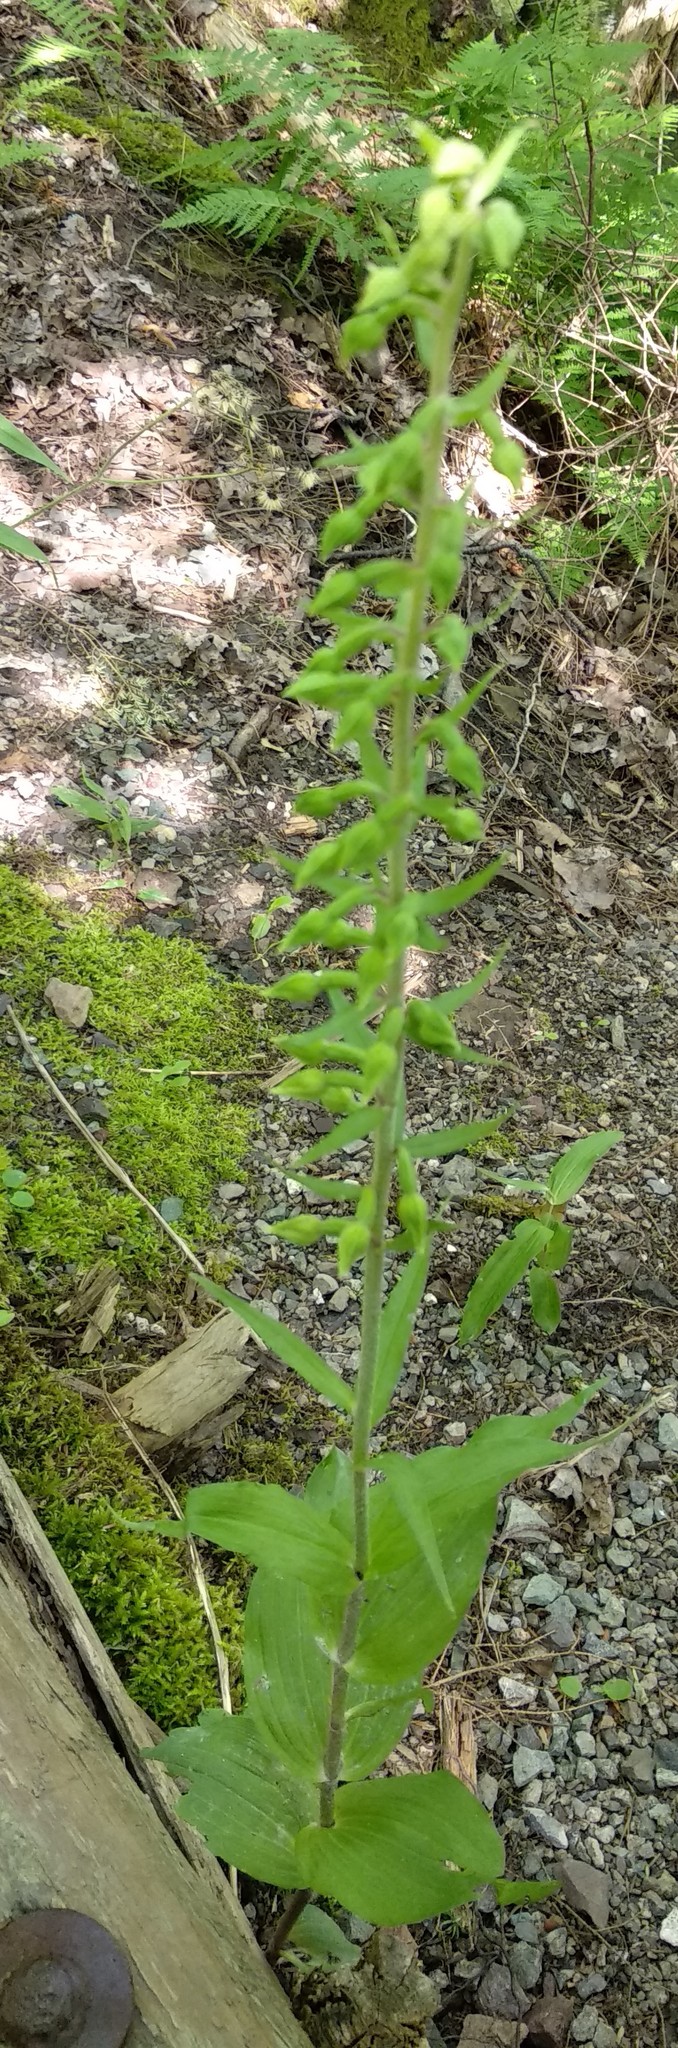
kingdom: Plantae
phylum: Tracheophyta
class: Liliopsida
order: Asparagales
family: Orchidaceae
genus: Epipactis
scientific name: Epipactis helleborine
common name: Broad-leaved helleborine
